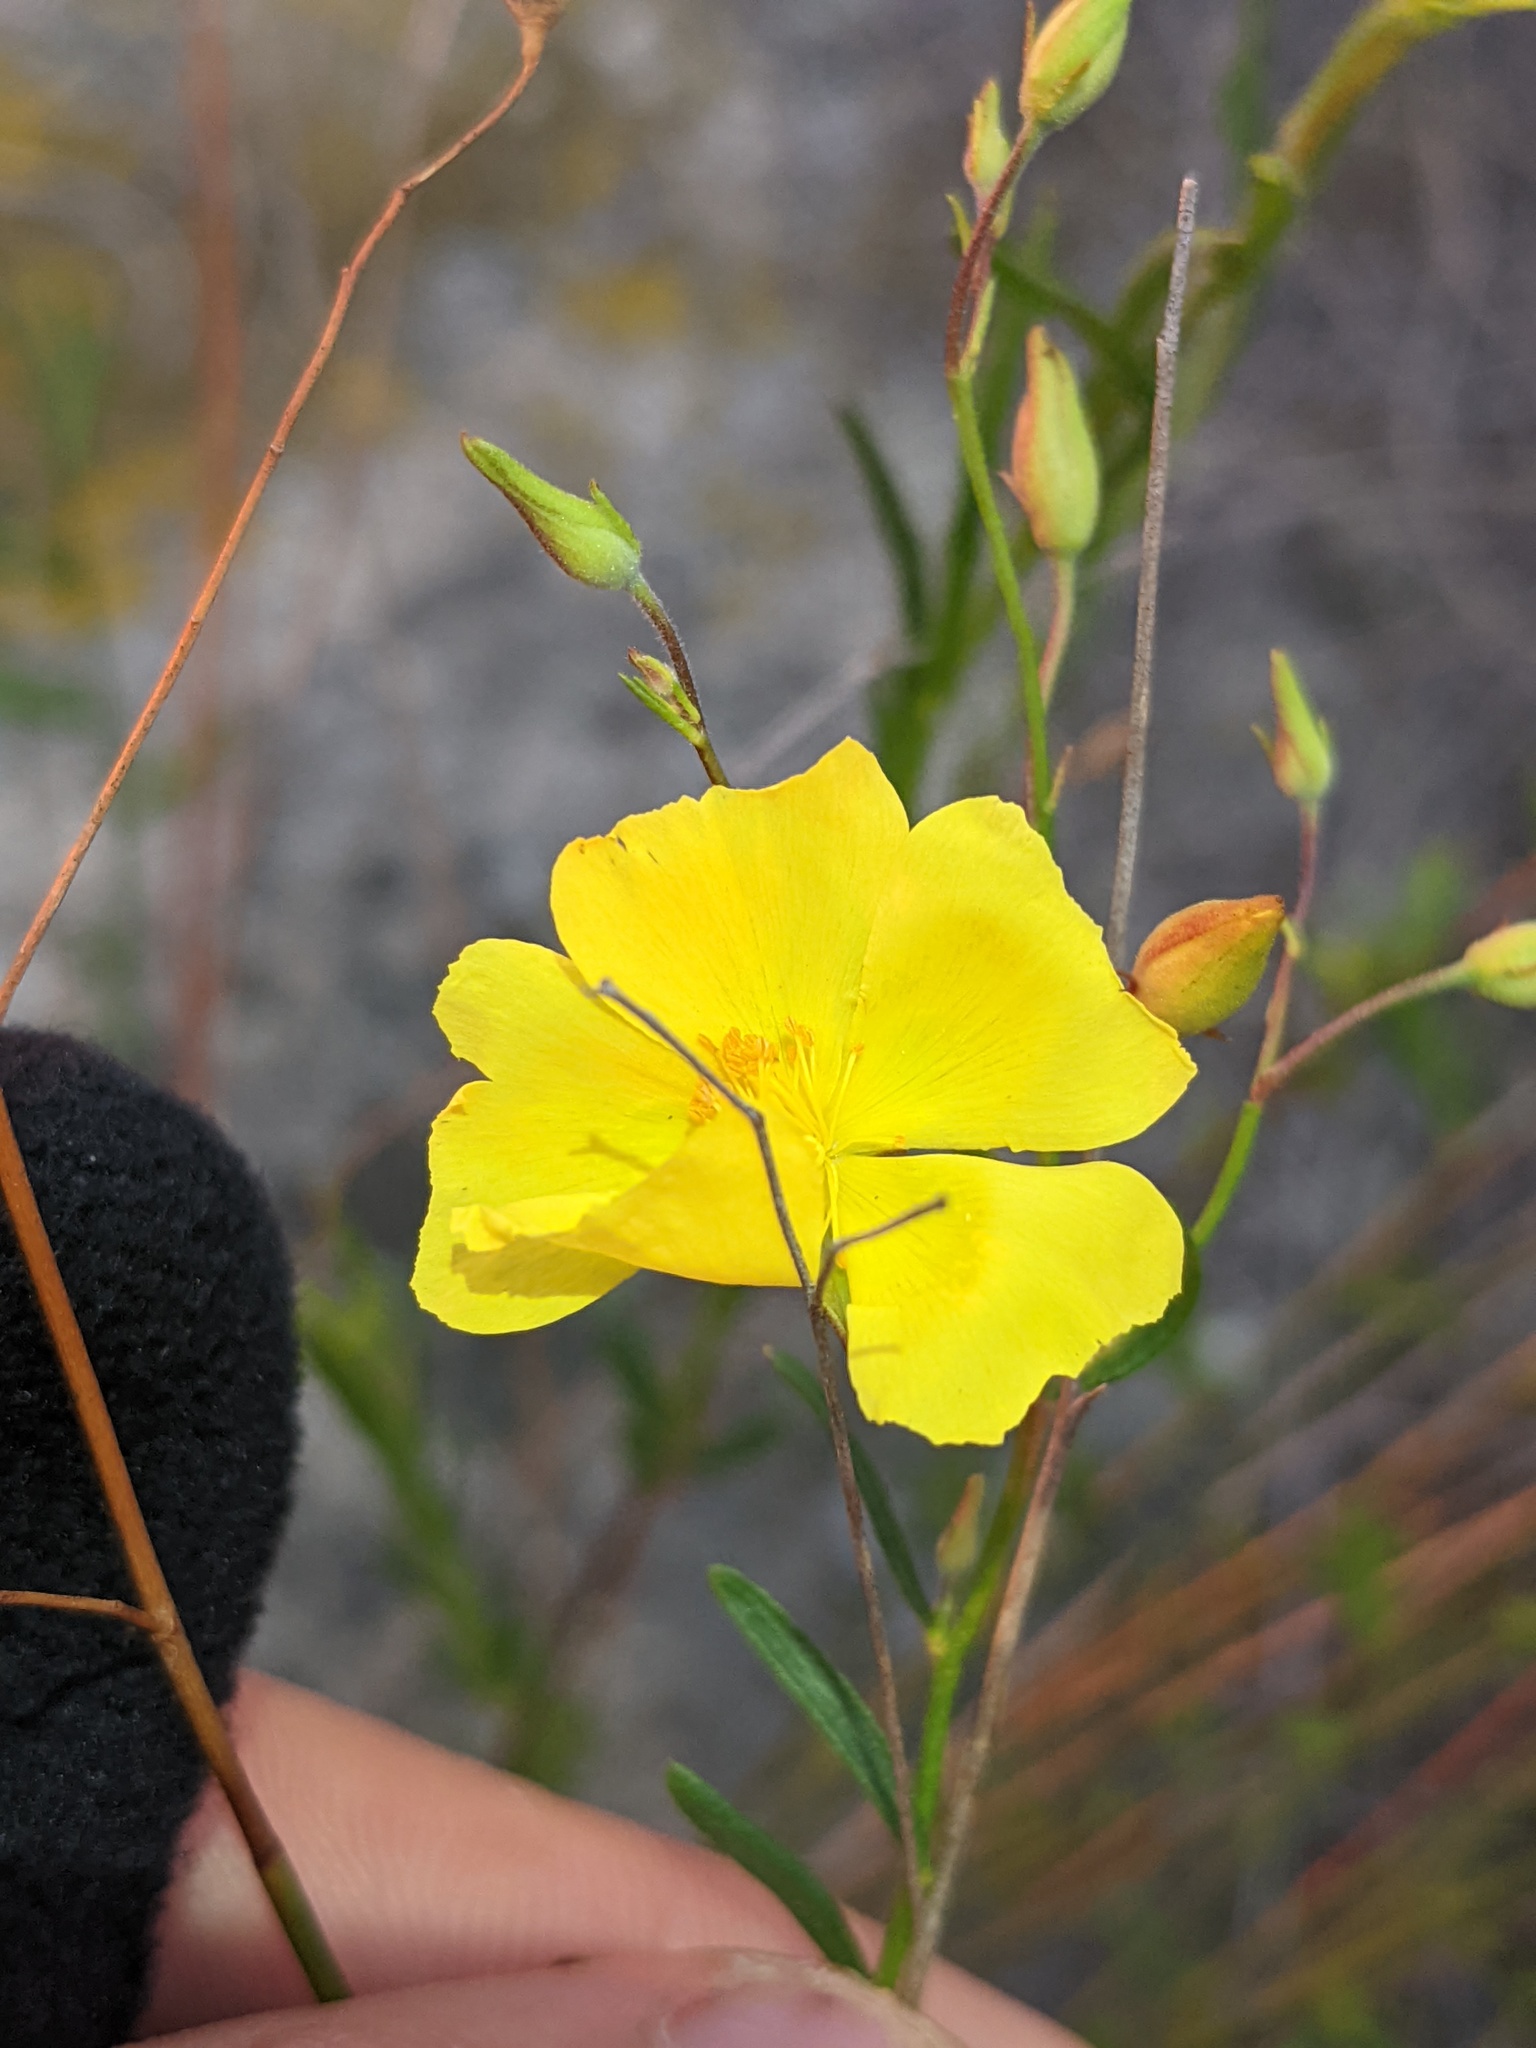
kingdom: Plantae
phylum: Tracheophyta
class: Magnoliopsida
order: Malvales
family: Cistaceae
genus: Crocanthemum
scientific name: Crocanthemum aldersonii
